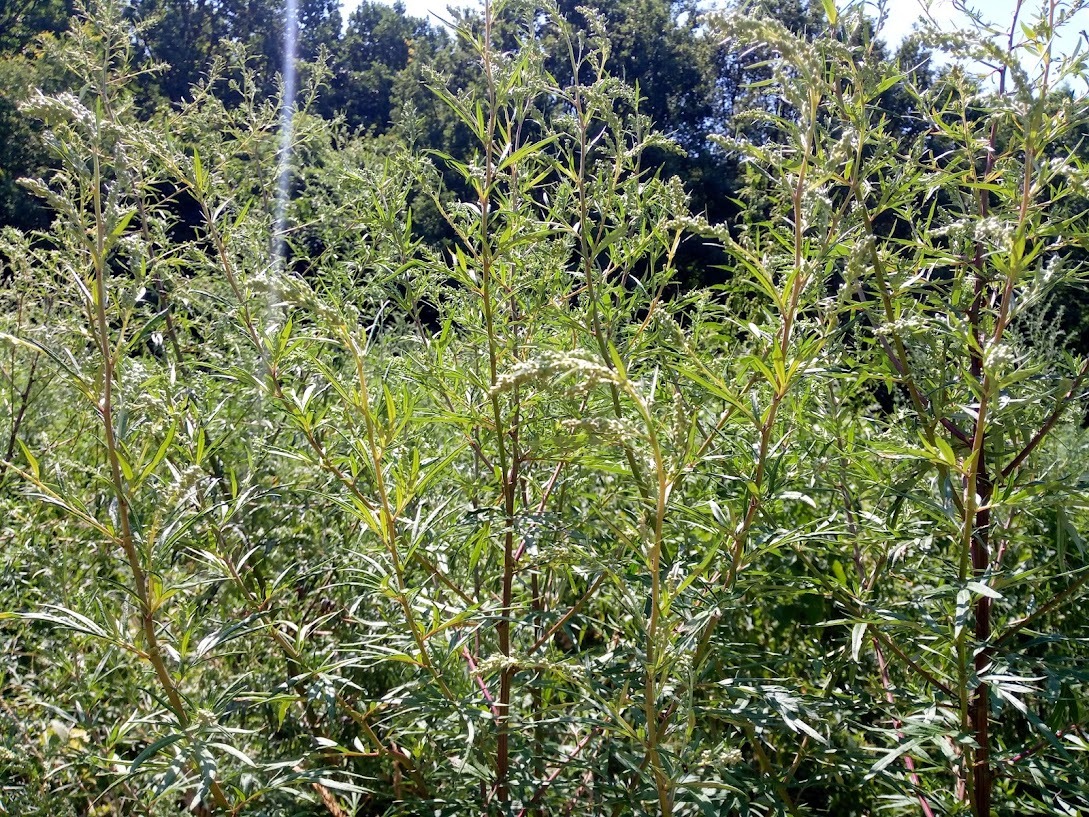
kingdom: Plantae
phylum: Tracheophyta
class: Magnoliopsida
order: Asterales
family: Asteraceae
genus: Artemisia
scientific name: Artemisia vulgaris
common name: Mugwort
